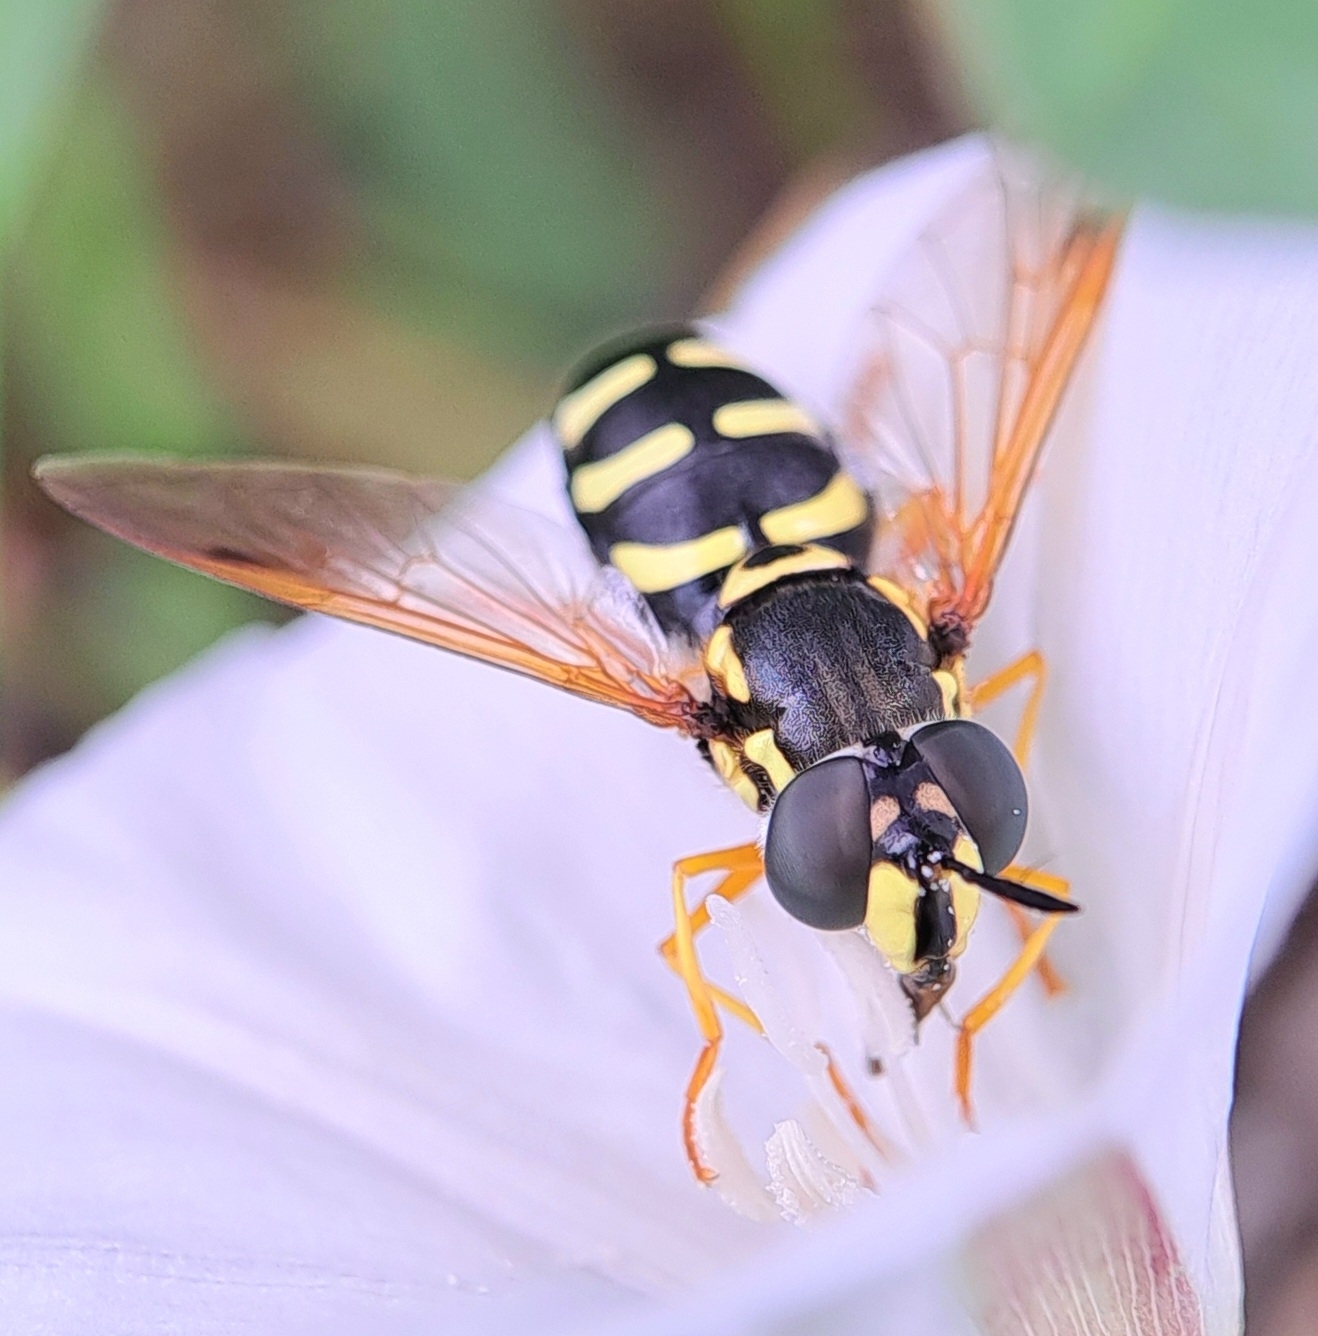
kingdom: Animalia
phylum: Arthropoda
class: Insecta
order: Diptera
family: Syrphidae
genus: Chrysotoxum
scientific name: Chrysotoxum festivum
